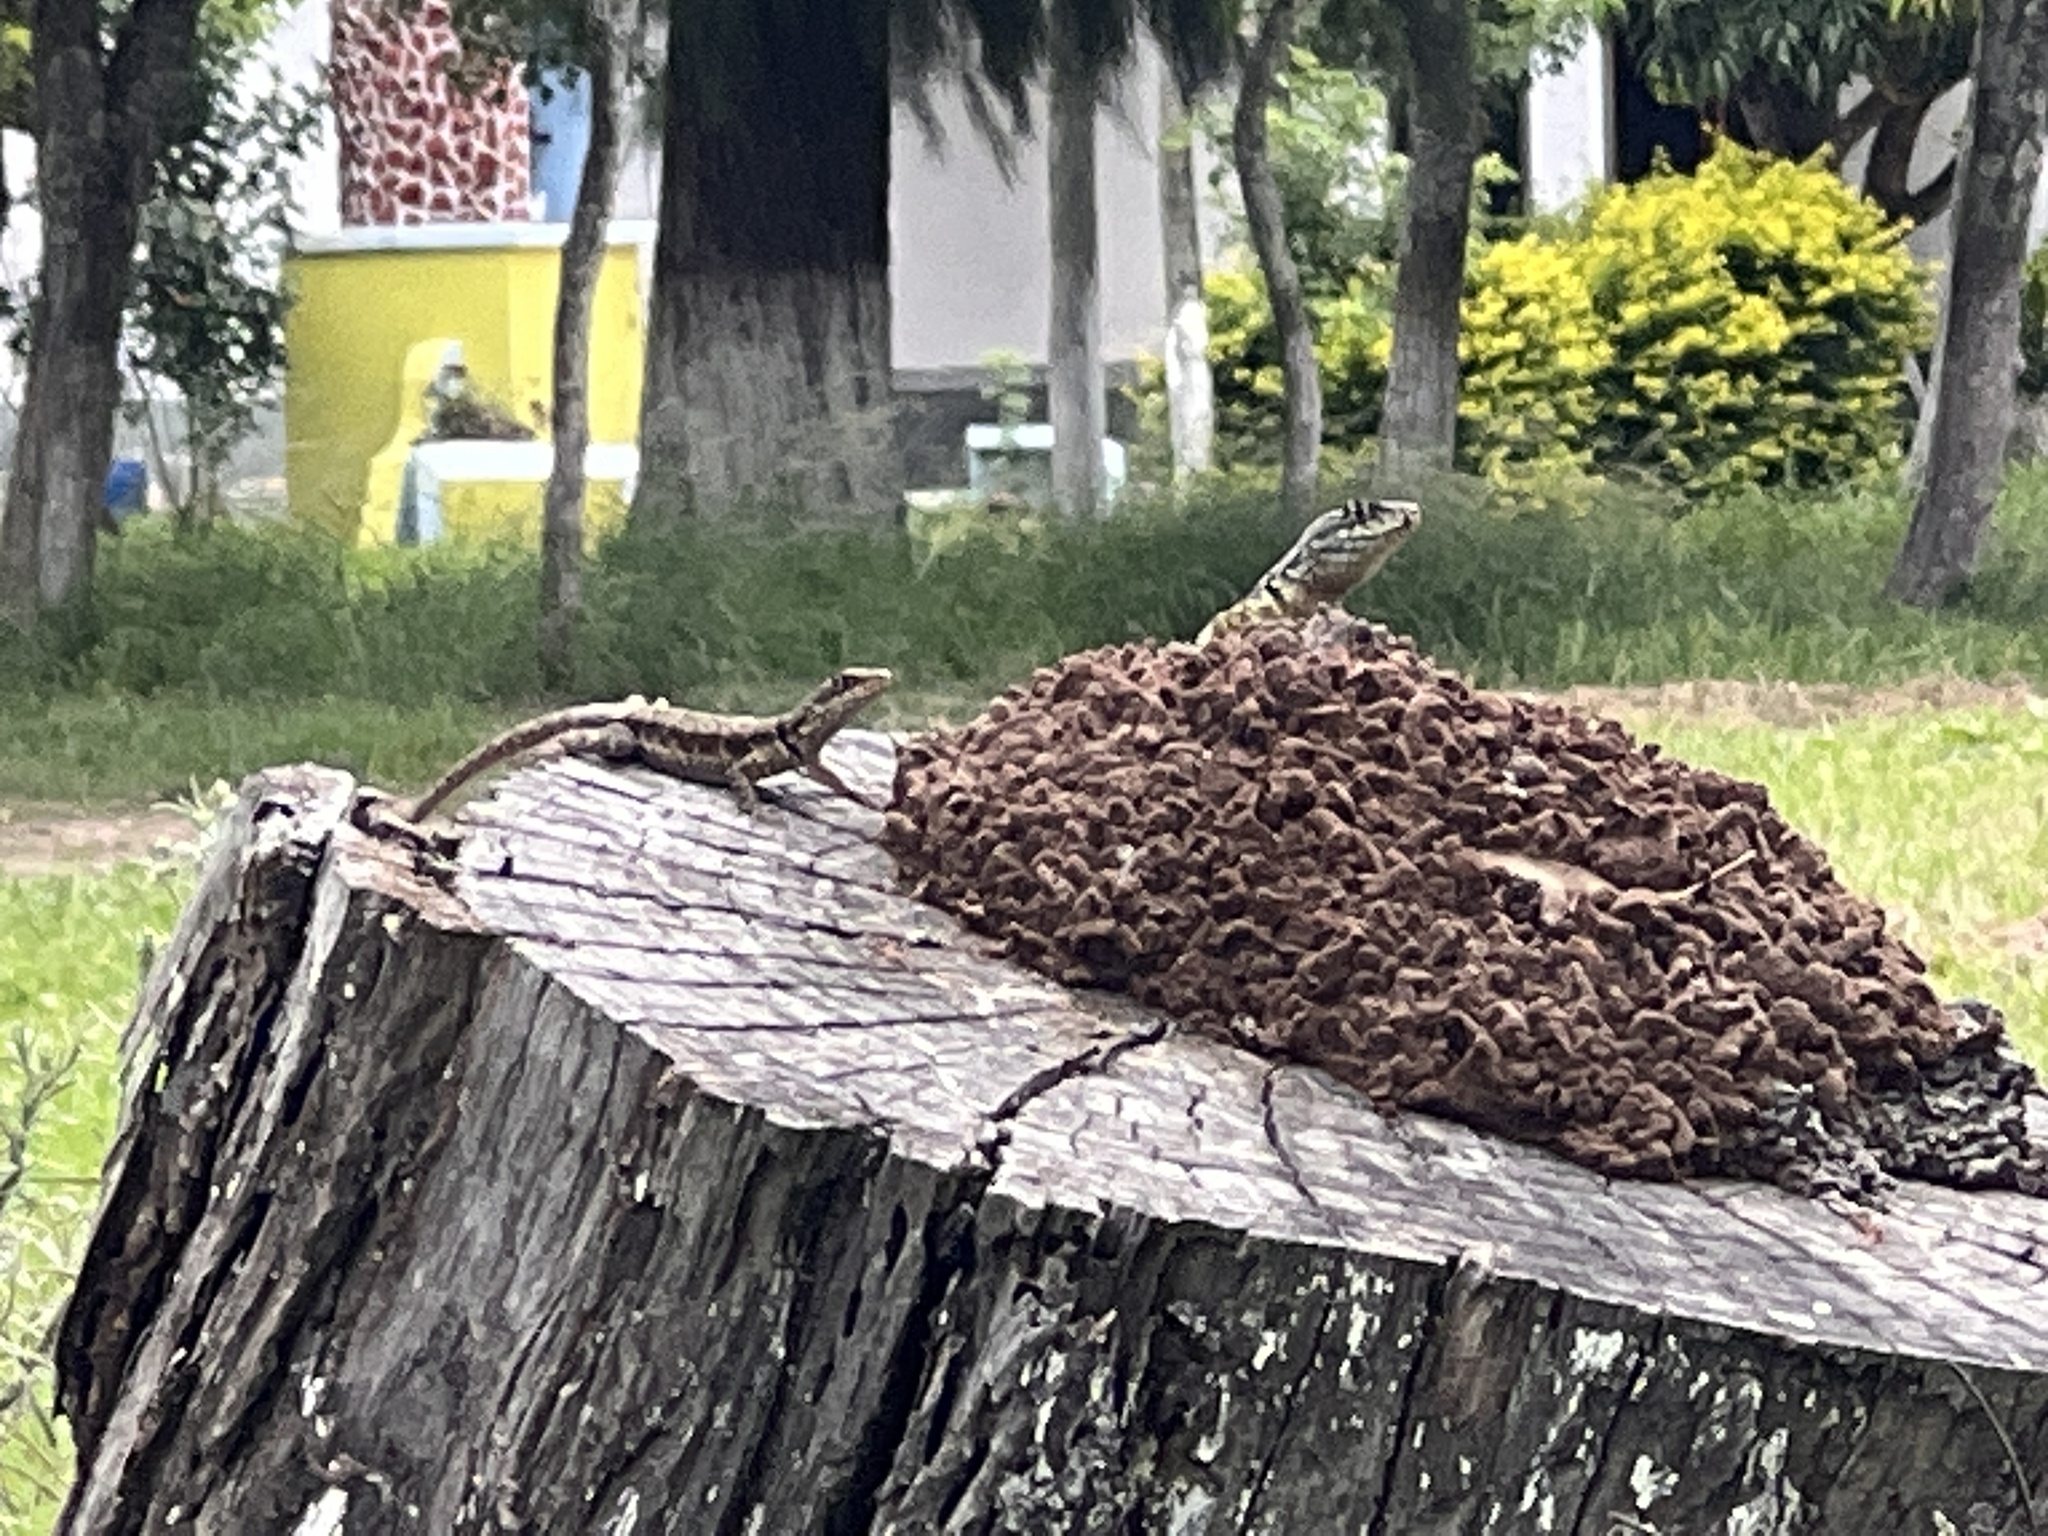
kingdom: Animalia
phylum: Chordata
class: Squamata
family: Tropiduridae
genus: Tropidurus
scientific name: Tropidurus catalanensis
